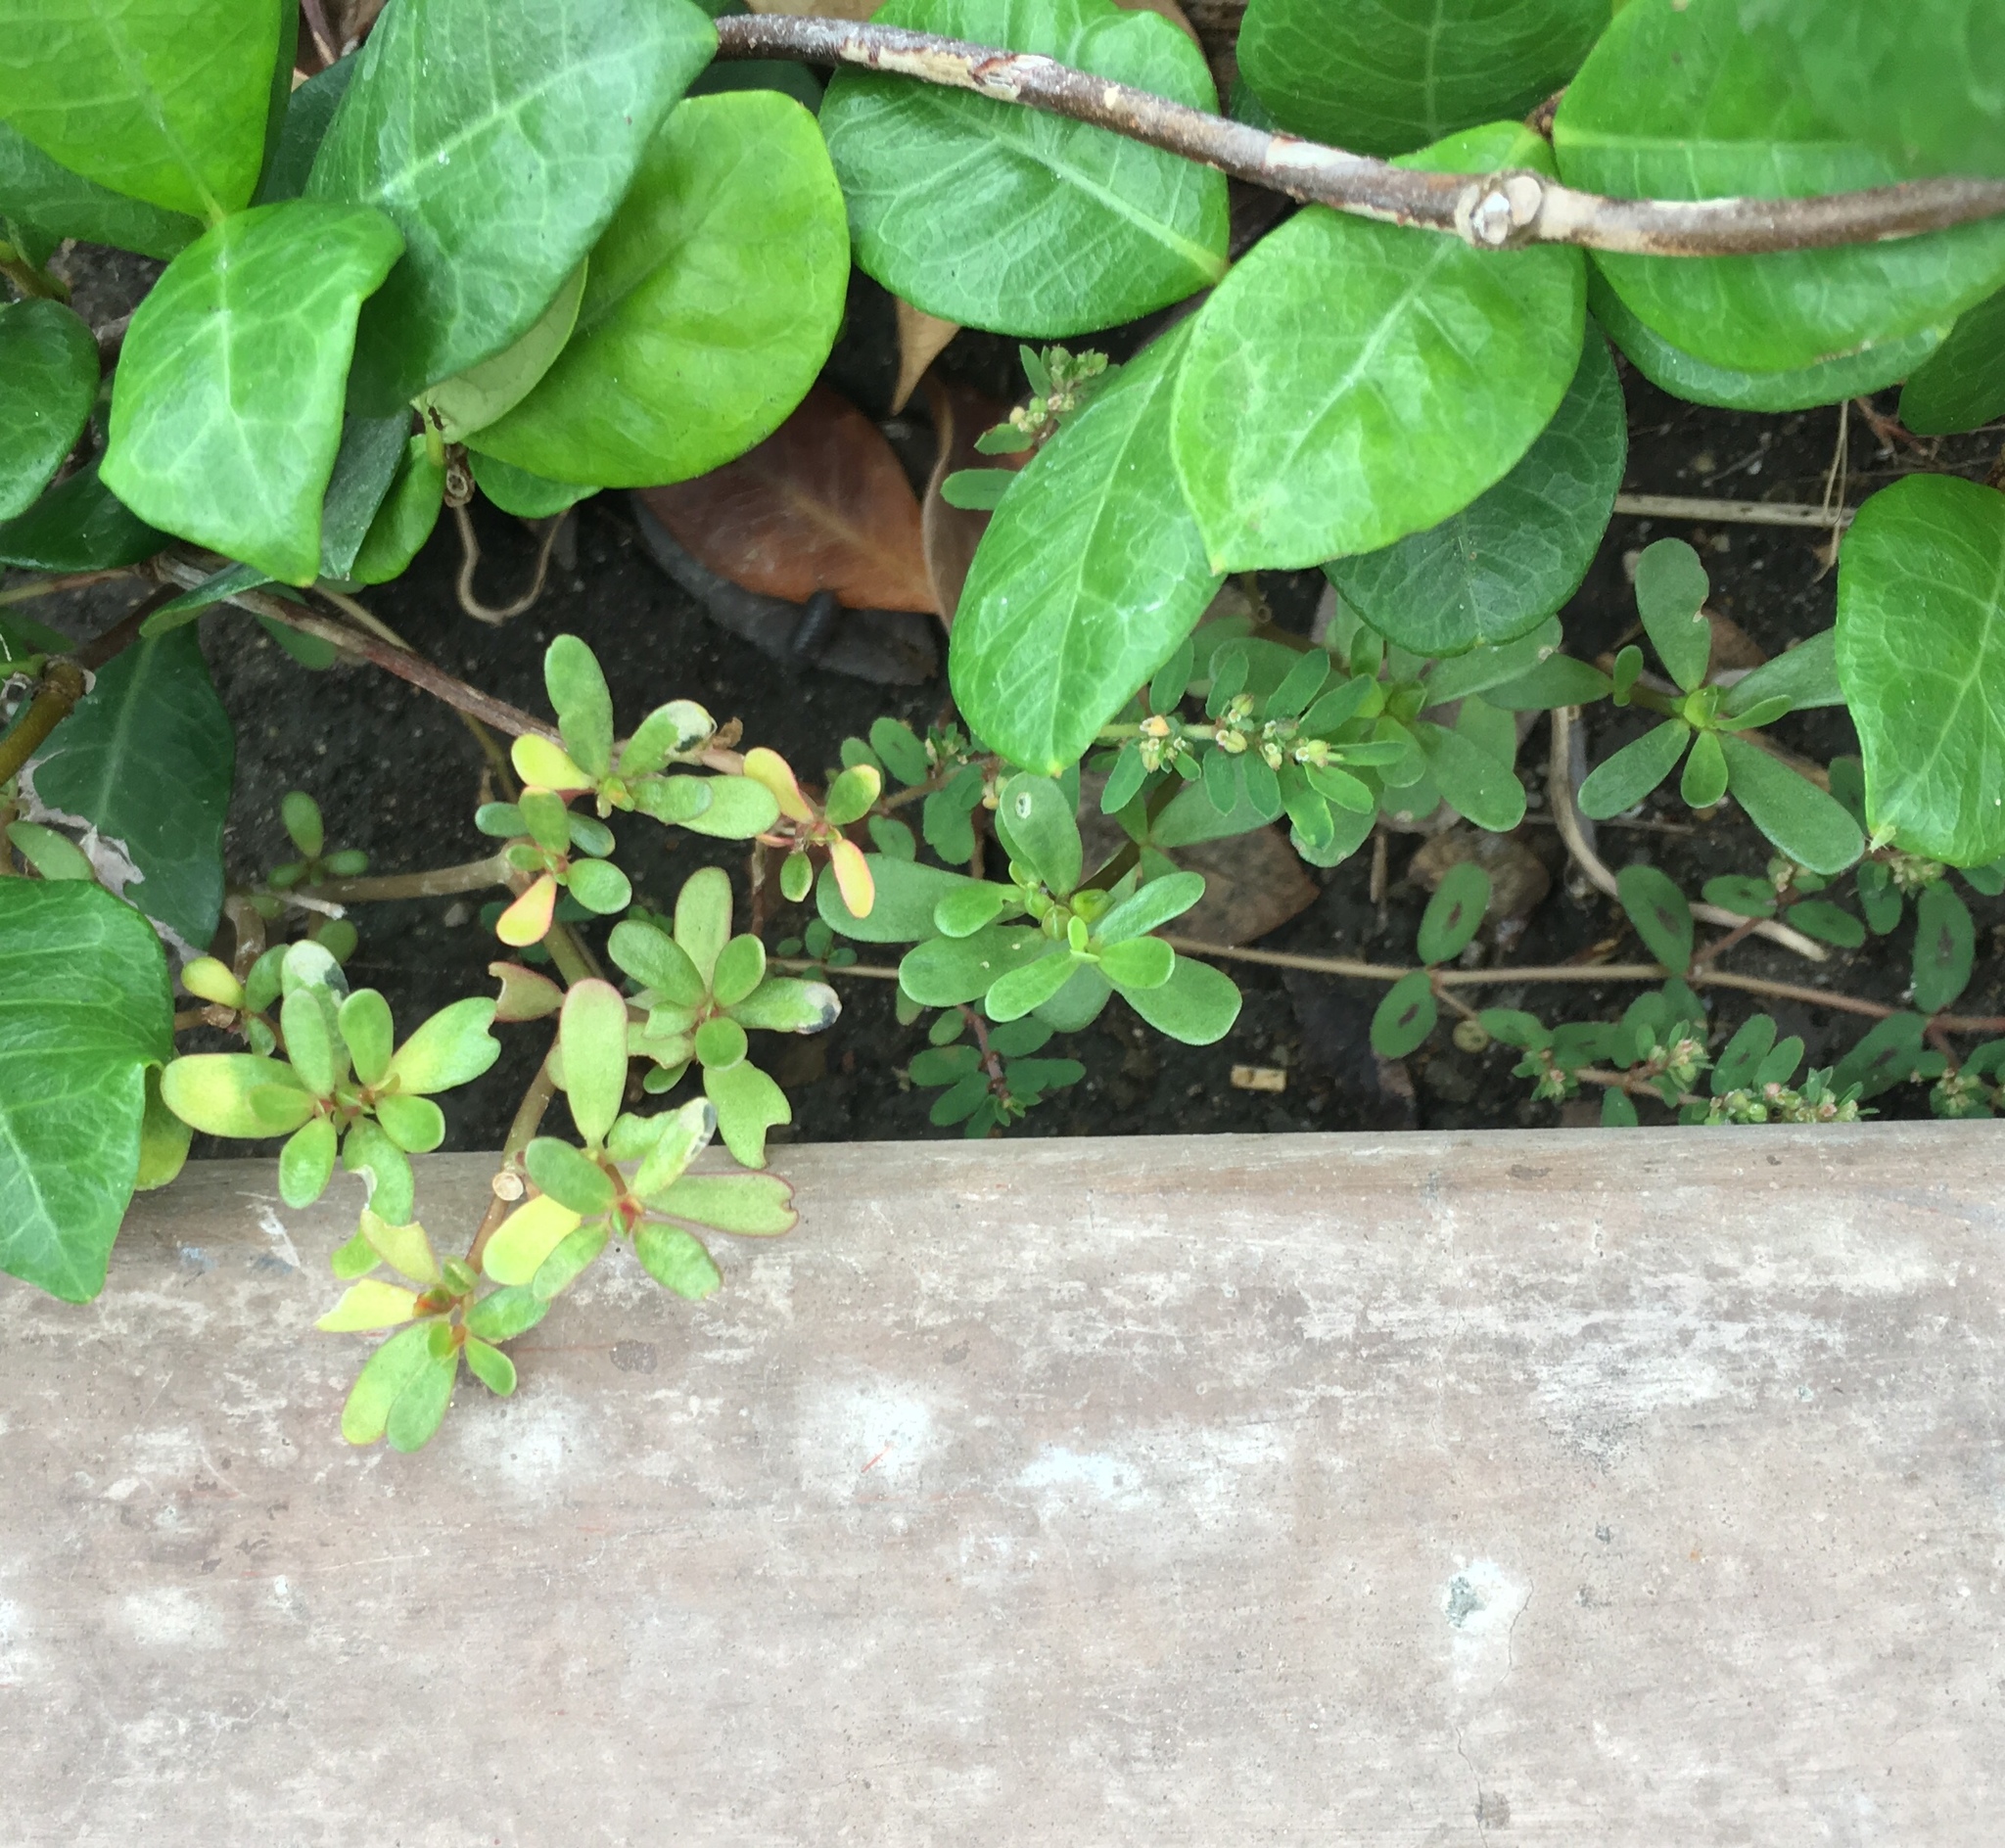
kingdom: Plantae
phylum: Tracheophyta
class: Magnoliopsida
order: Caryophyllales
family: Portulacaceae
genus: Portulaca
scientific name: Portulaca oleracea
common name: Common purslane
